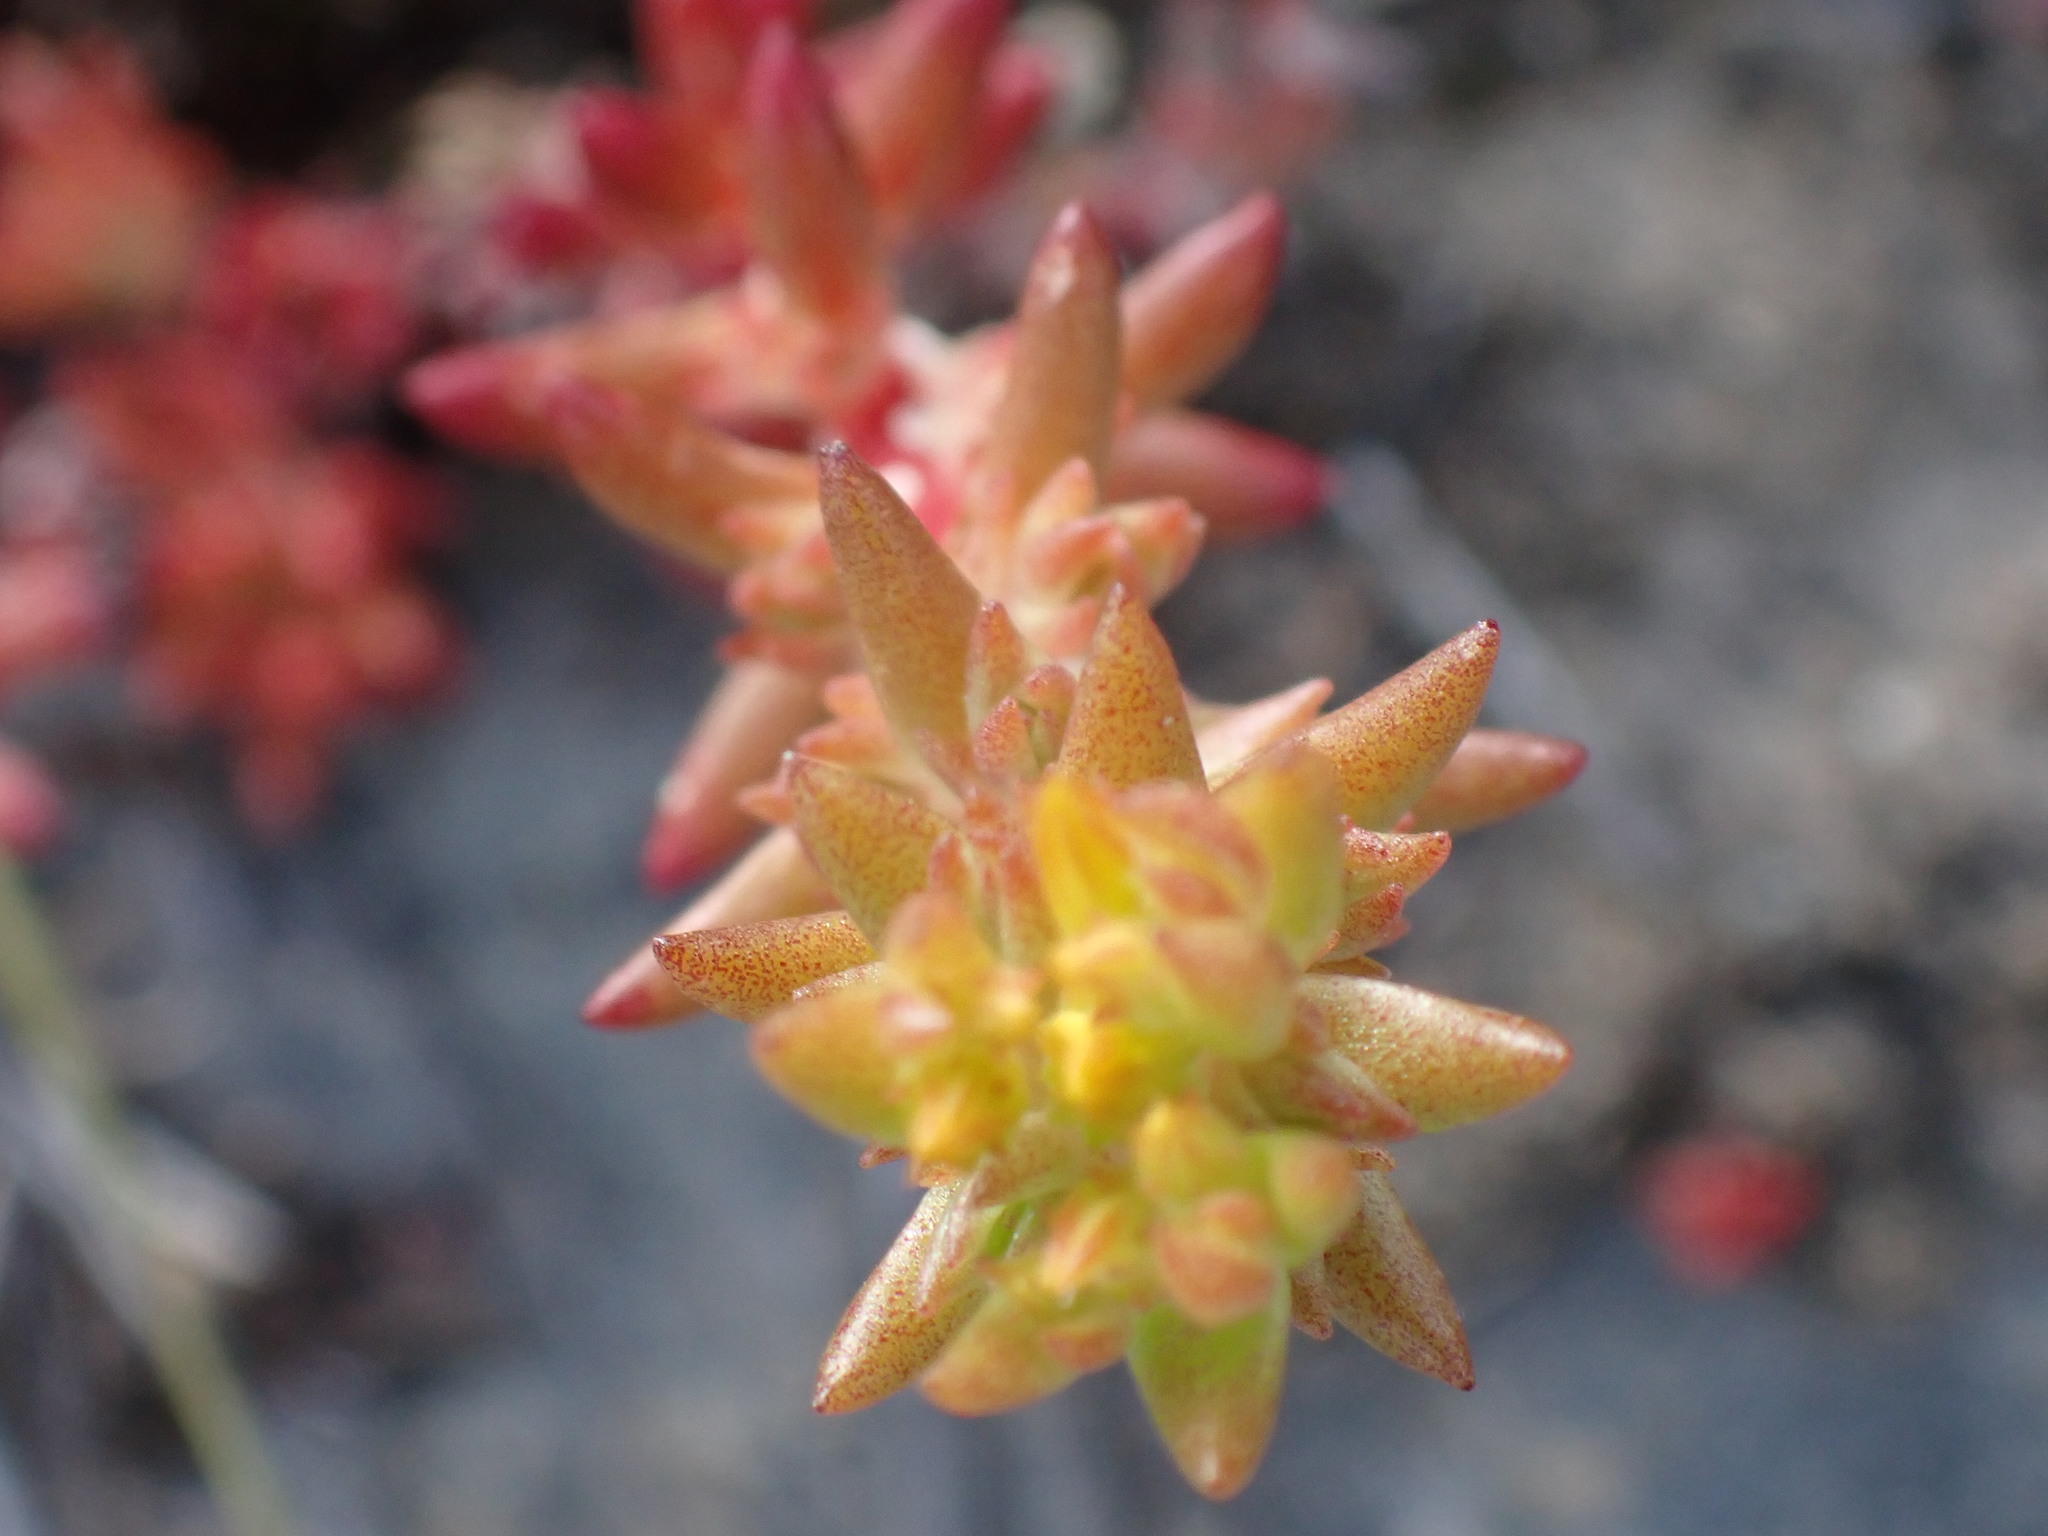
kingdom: Plantae
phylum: Tracheophyta
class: Magnoliopsida
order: Saxifragales
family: Crassulaceae
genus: Sedum
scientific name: Sedum stenopetalum
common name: Narrow-petaled stonecrop
